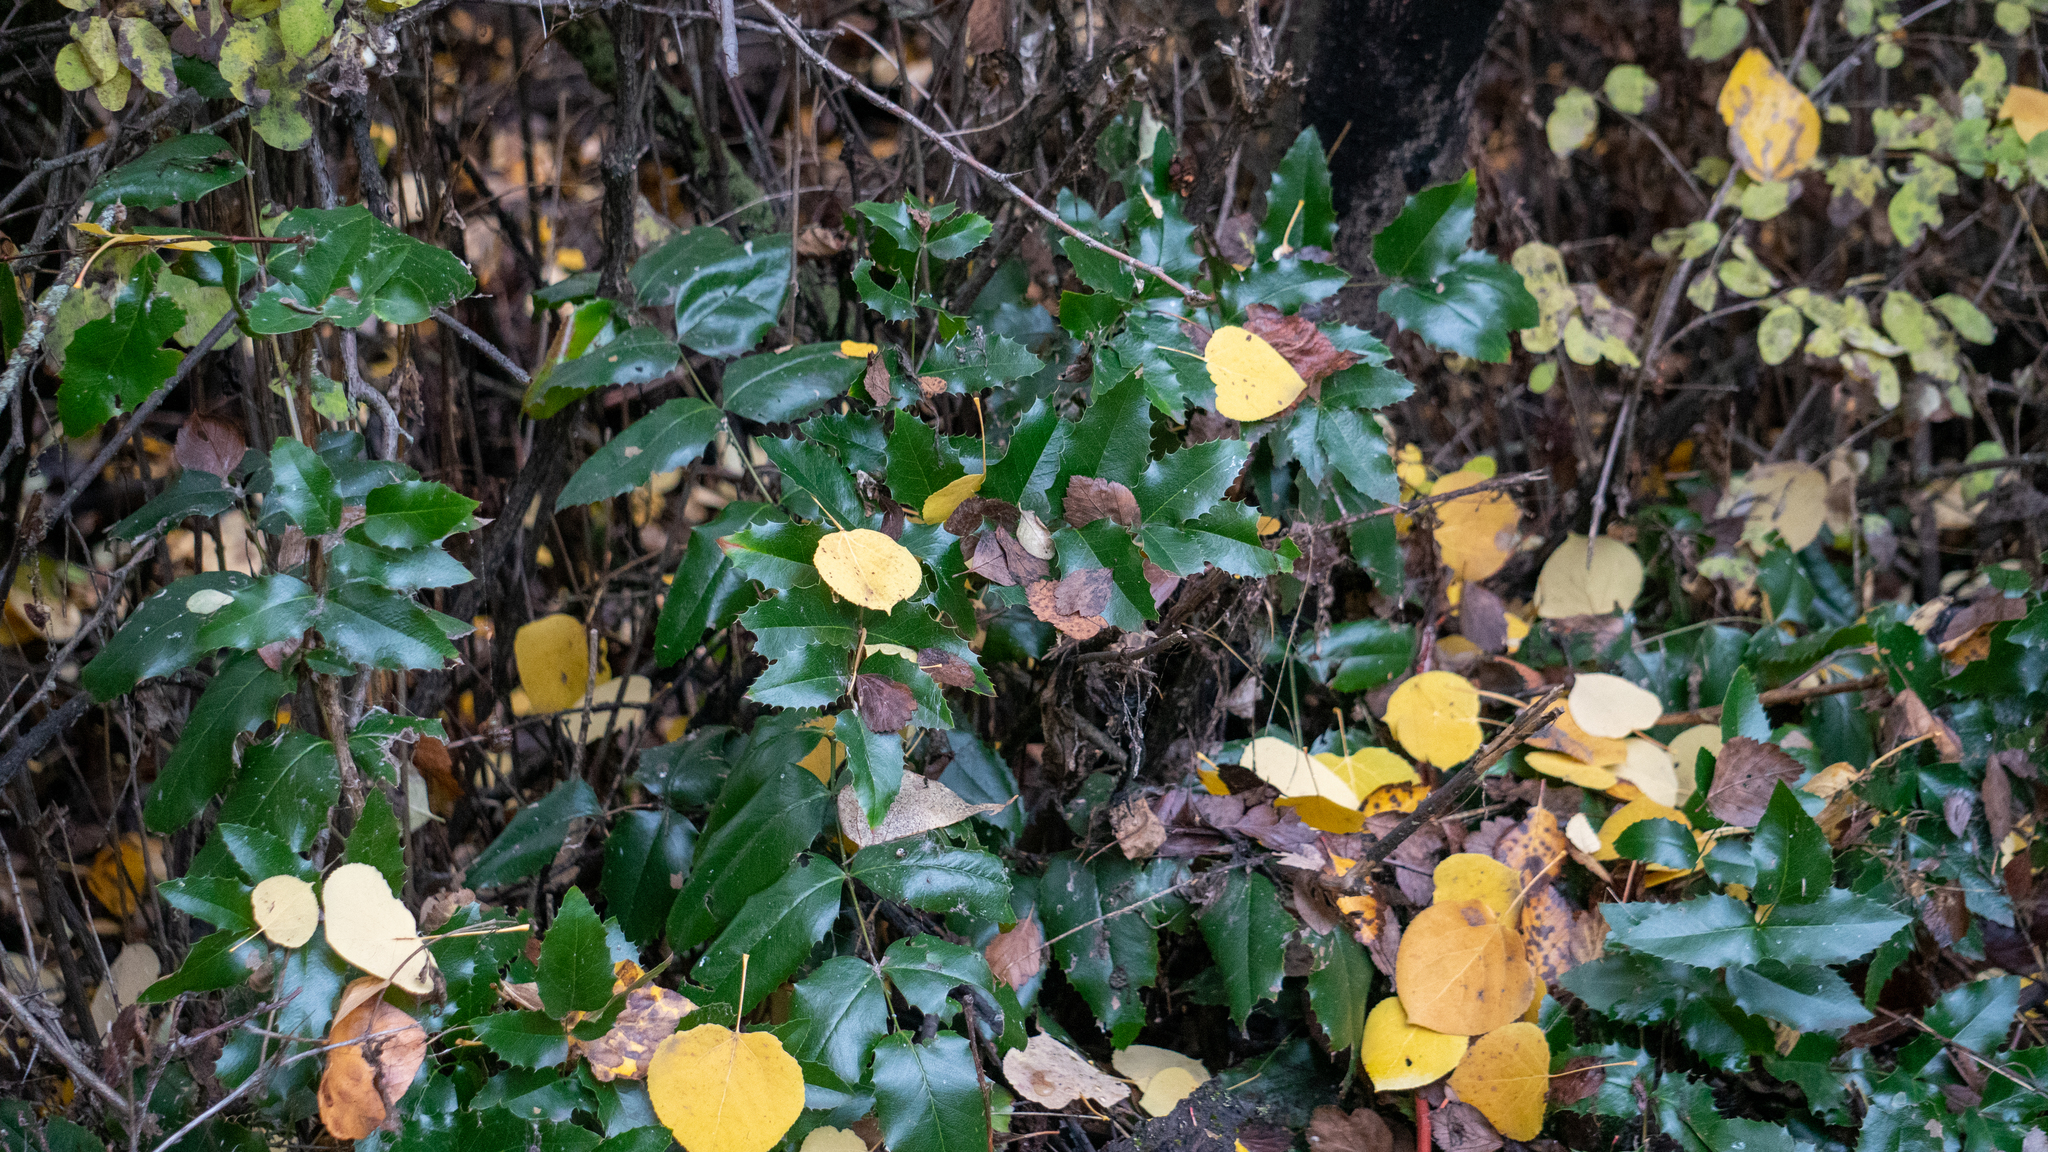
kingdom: Plantae
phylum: Tracheophyta
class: Magnoliopsida
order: Ranunculales
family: Berberidaceae
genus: Mahonia
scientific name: Mahonia aquifolium
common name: Oregon-grape
